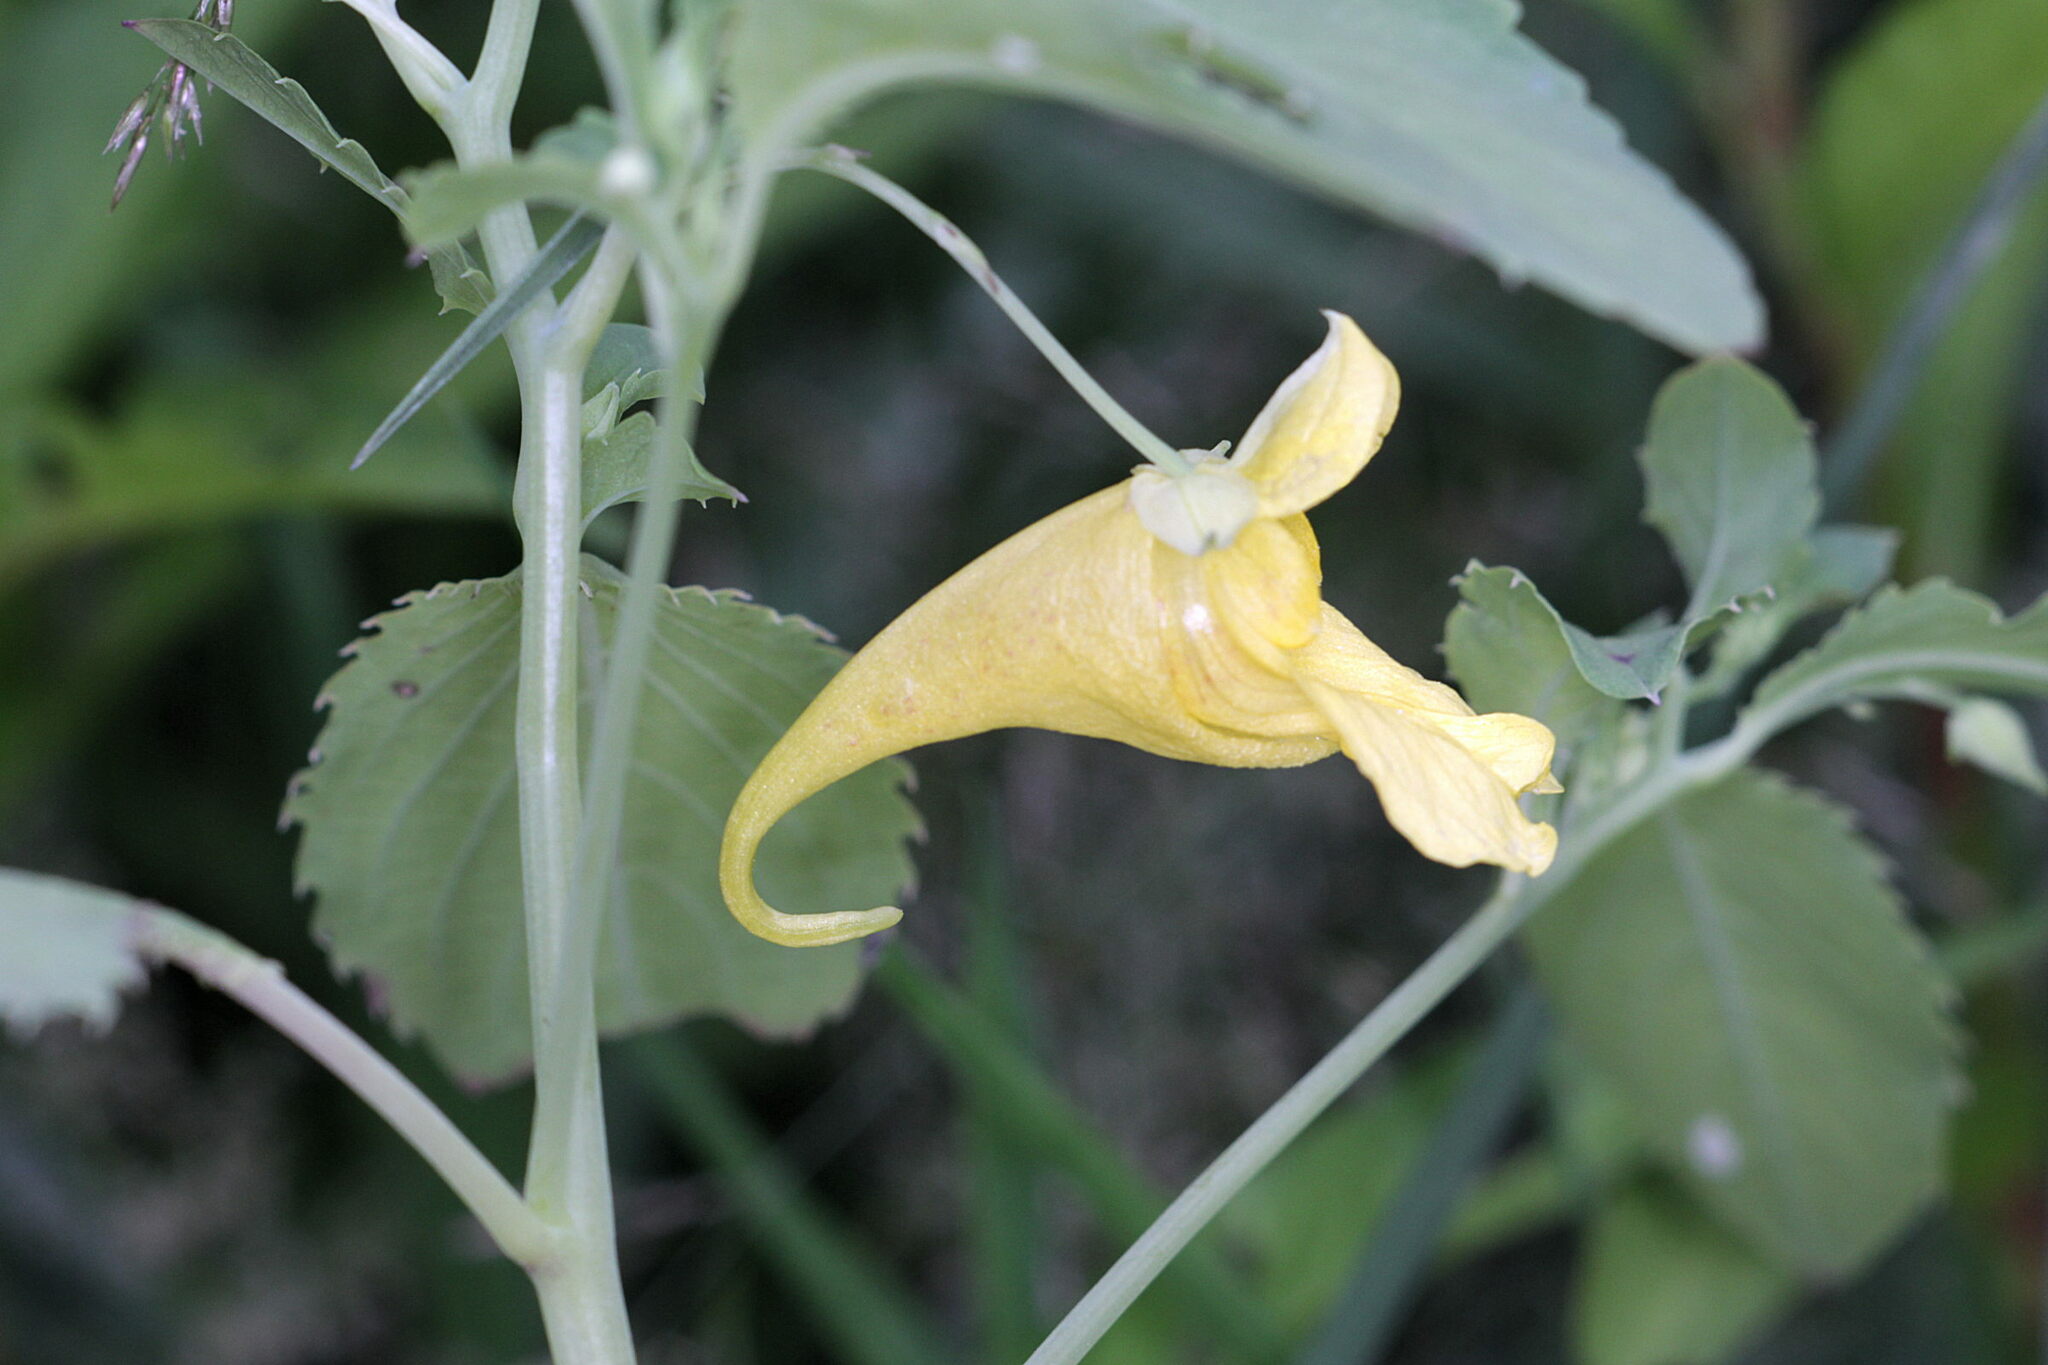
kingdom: Plantae
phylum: Tracheophyta
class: Magnoliopsida
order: Ericales
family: Balsaminaceae
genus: Impatiens
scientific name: Impatiens noli-tangere
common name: Touch-me-not balsam
